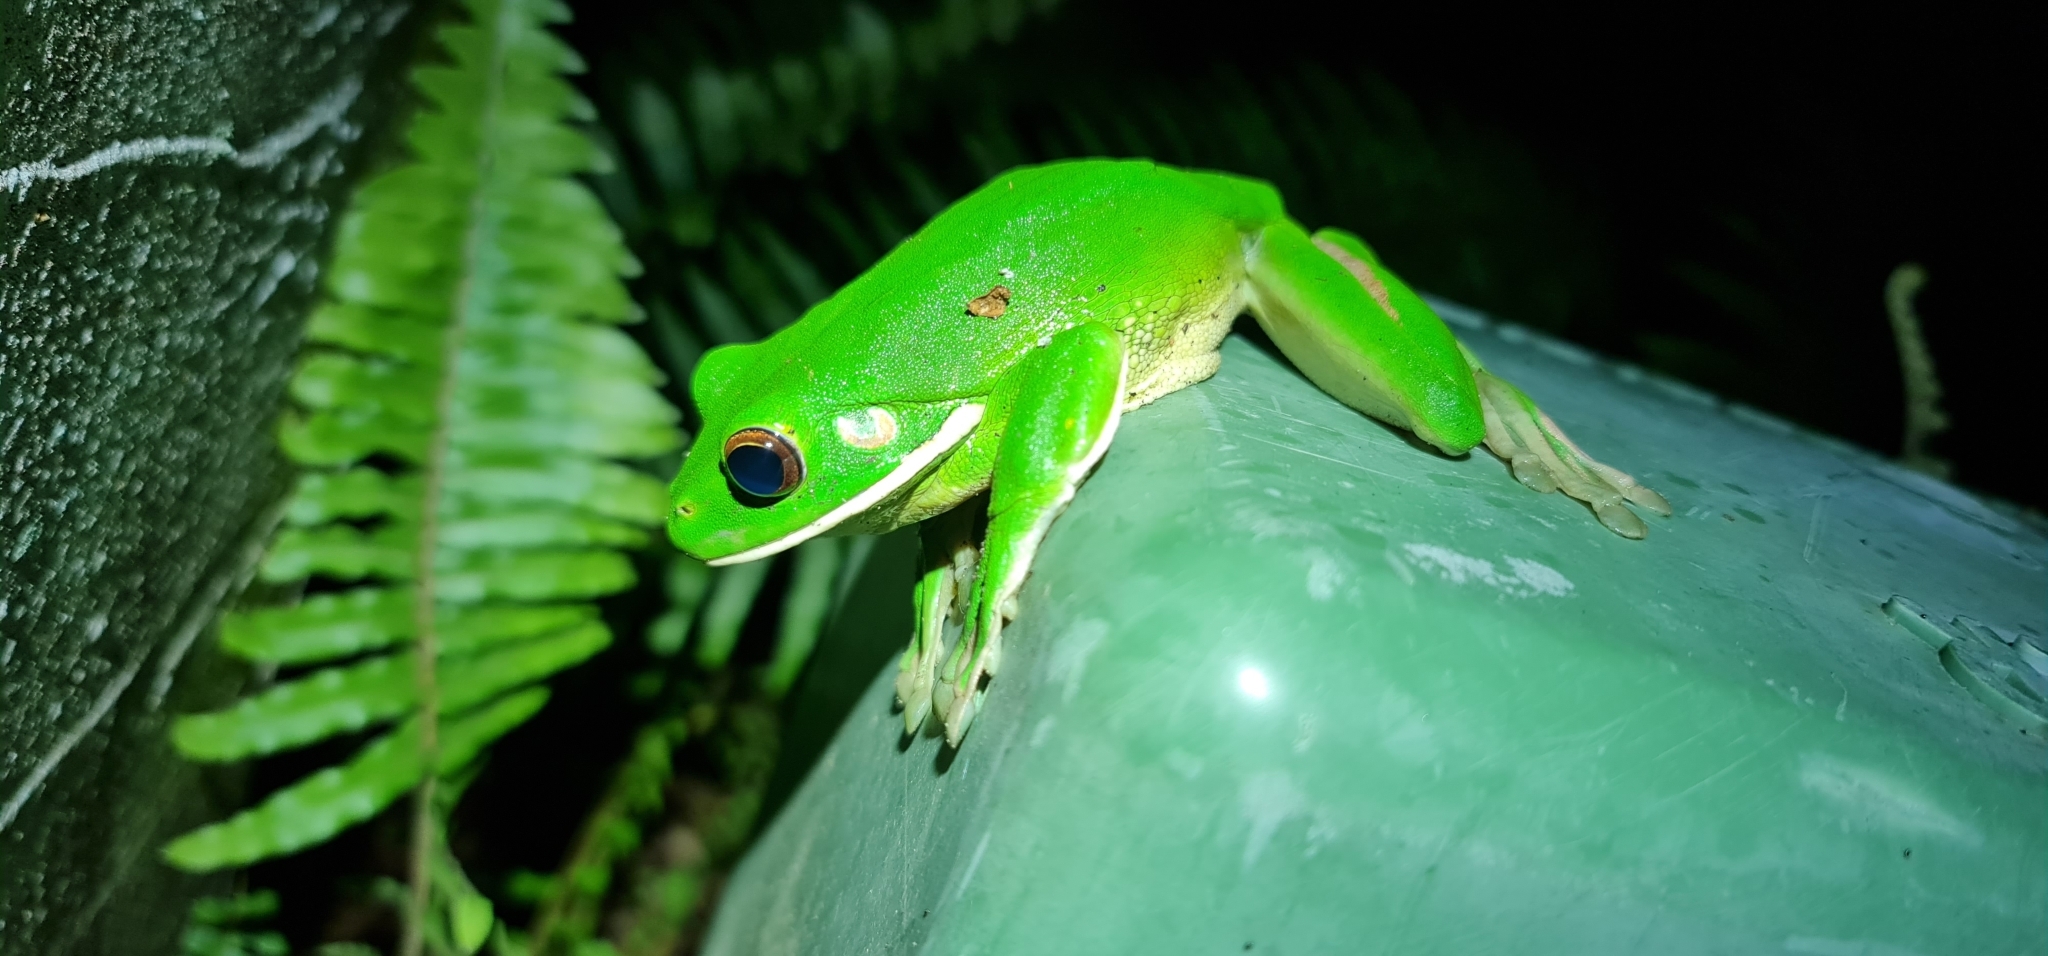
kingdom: Animalia
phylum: Chordata
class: Amphibia
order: Anura
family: Pelodryadidae
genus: Nyctimystes
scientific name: Nyctimystes infrafrenatus
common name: Australian giant treefrog
